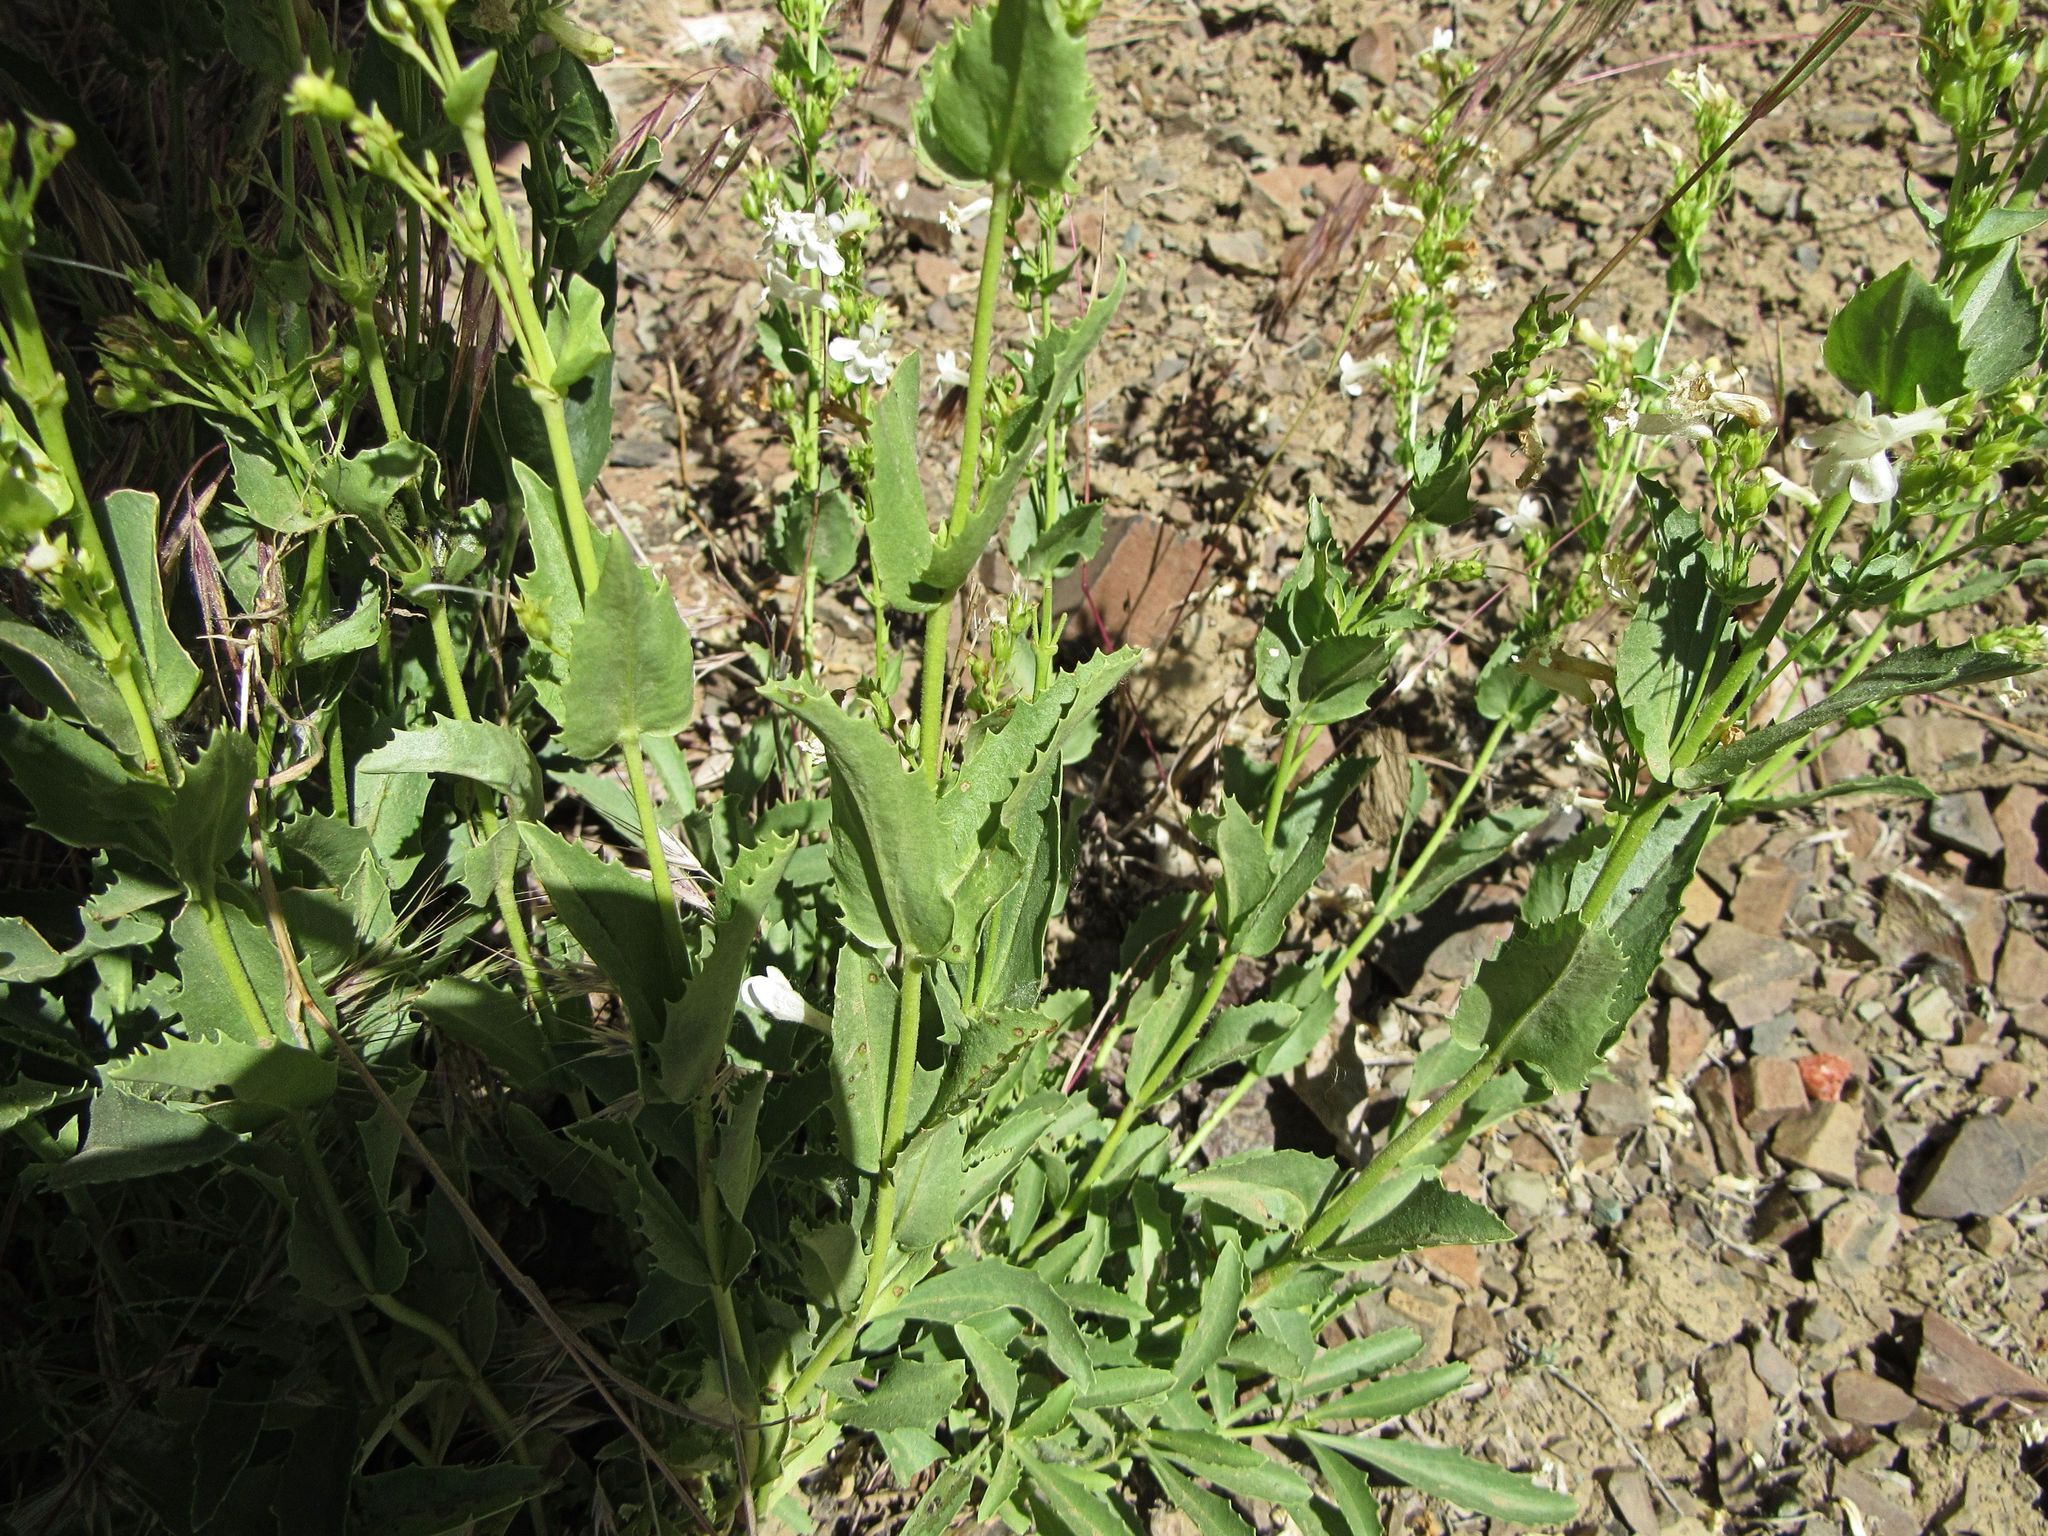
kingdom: Plantae
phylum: Tracheophyta
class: Magnoliopsida
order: Lamiales
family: Plantaginaceae
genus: Penstemon
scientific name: Penstemon deustus
